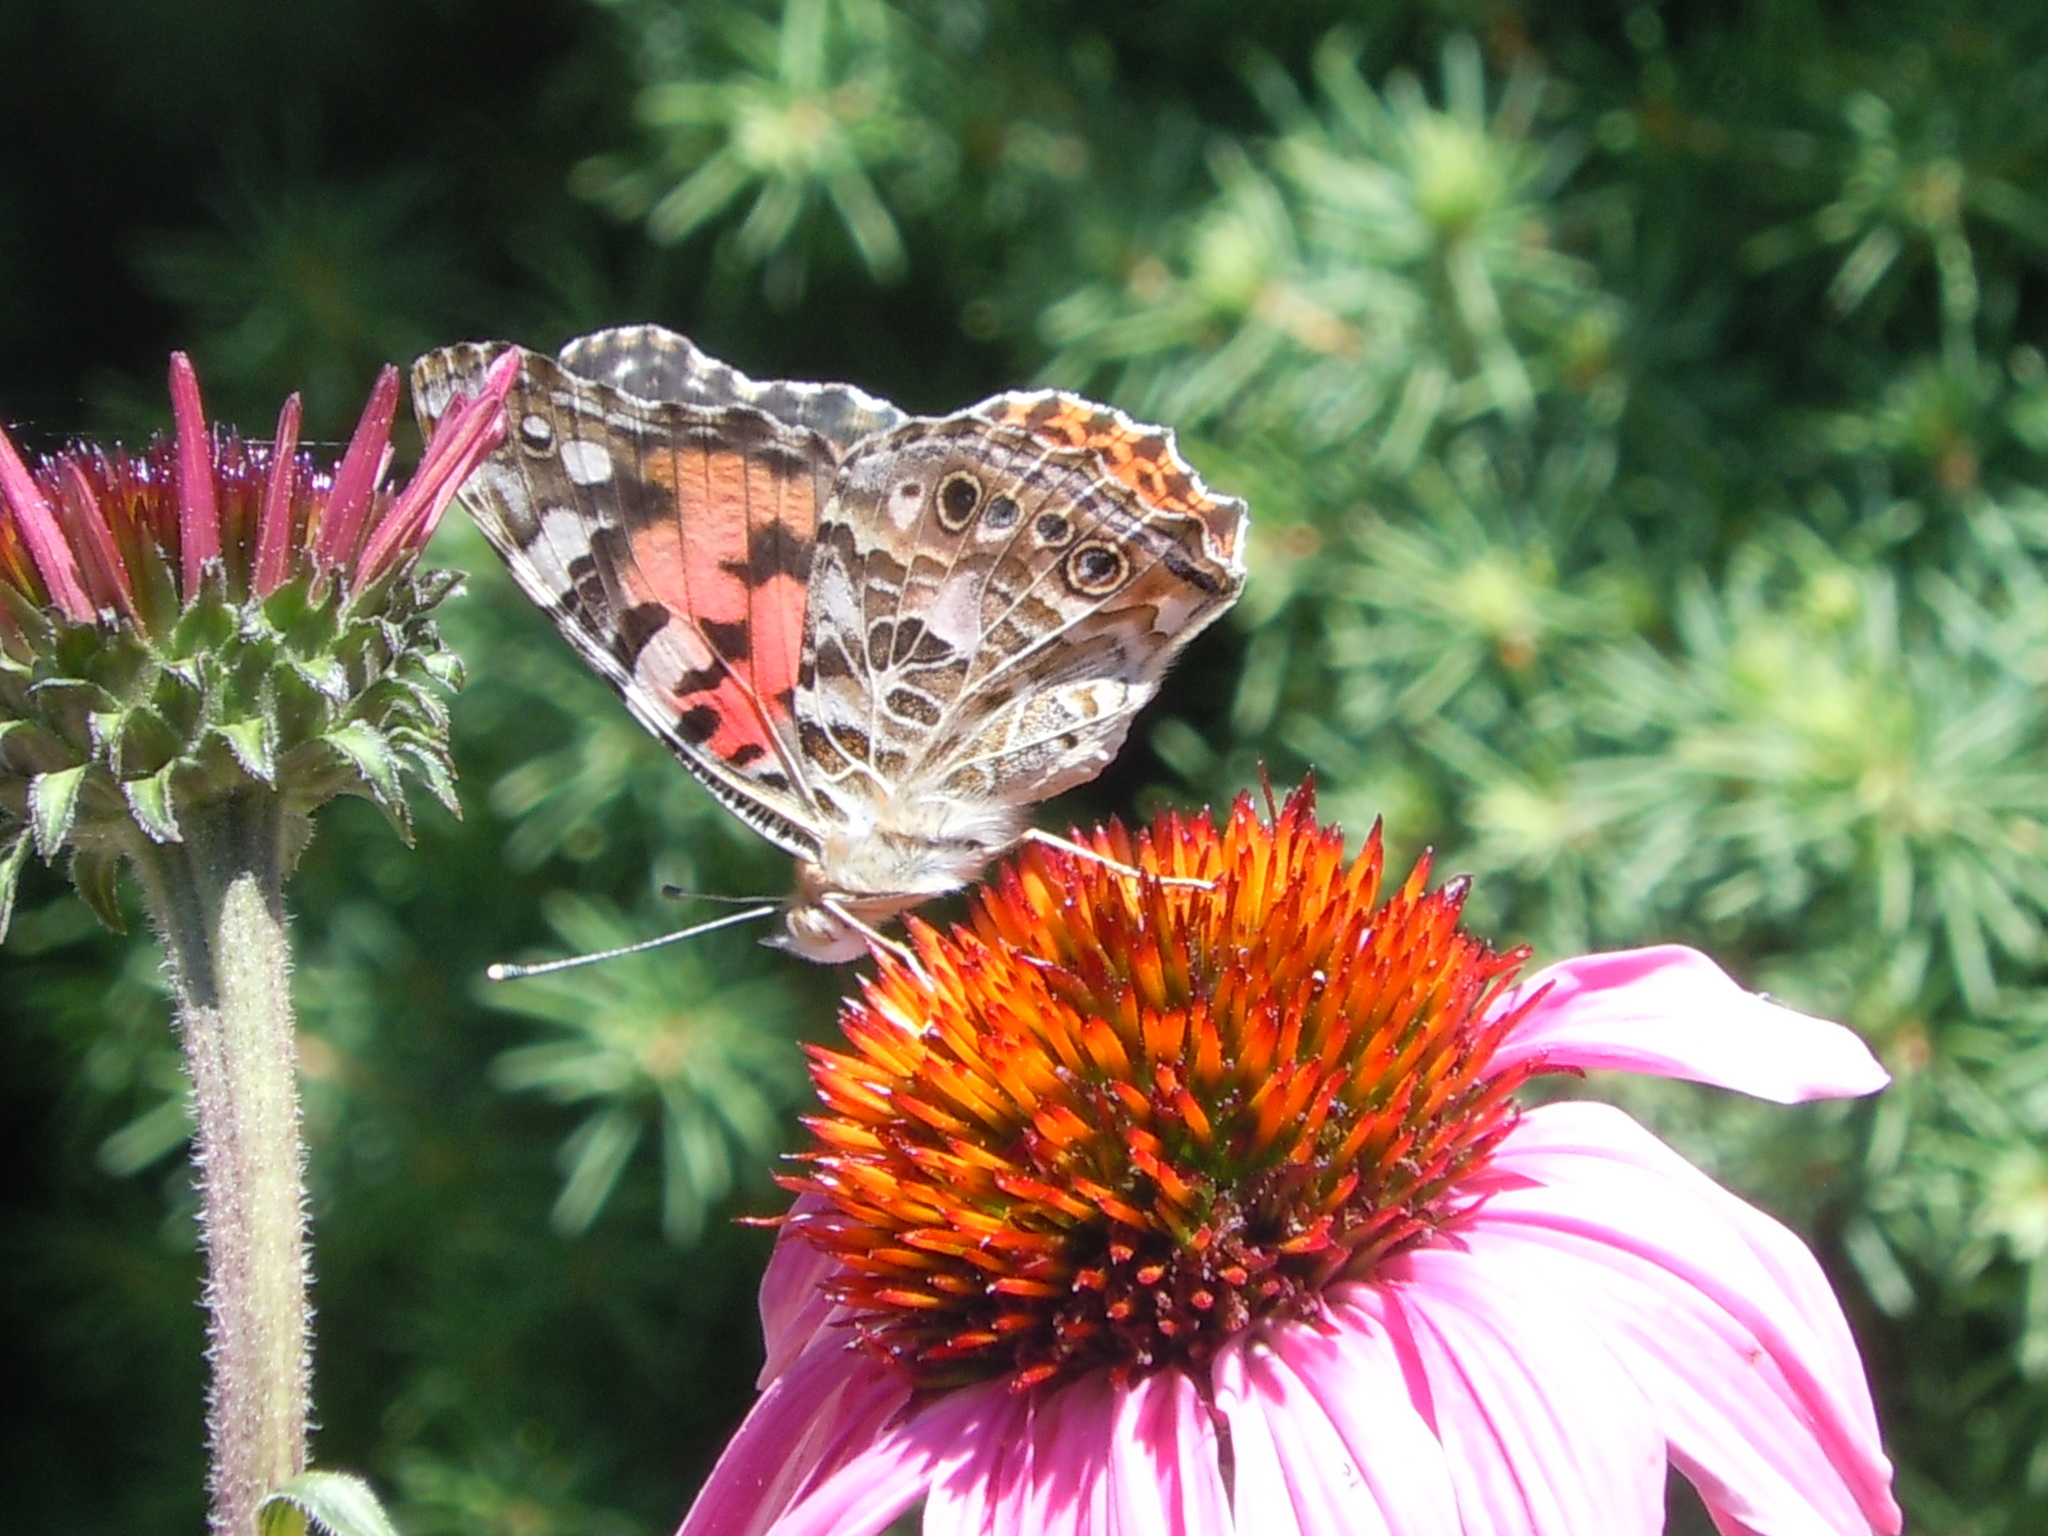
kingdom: Animalia
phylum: Arthropoda
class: Insecta
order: Lepidoptera
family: Nymphalidae
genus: Vanessa
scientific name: Vanessa cardui
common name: Painted lady
